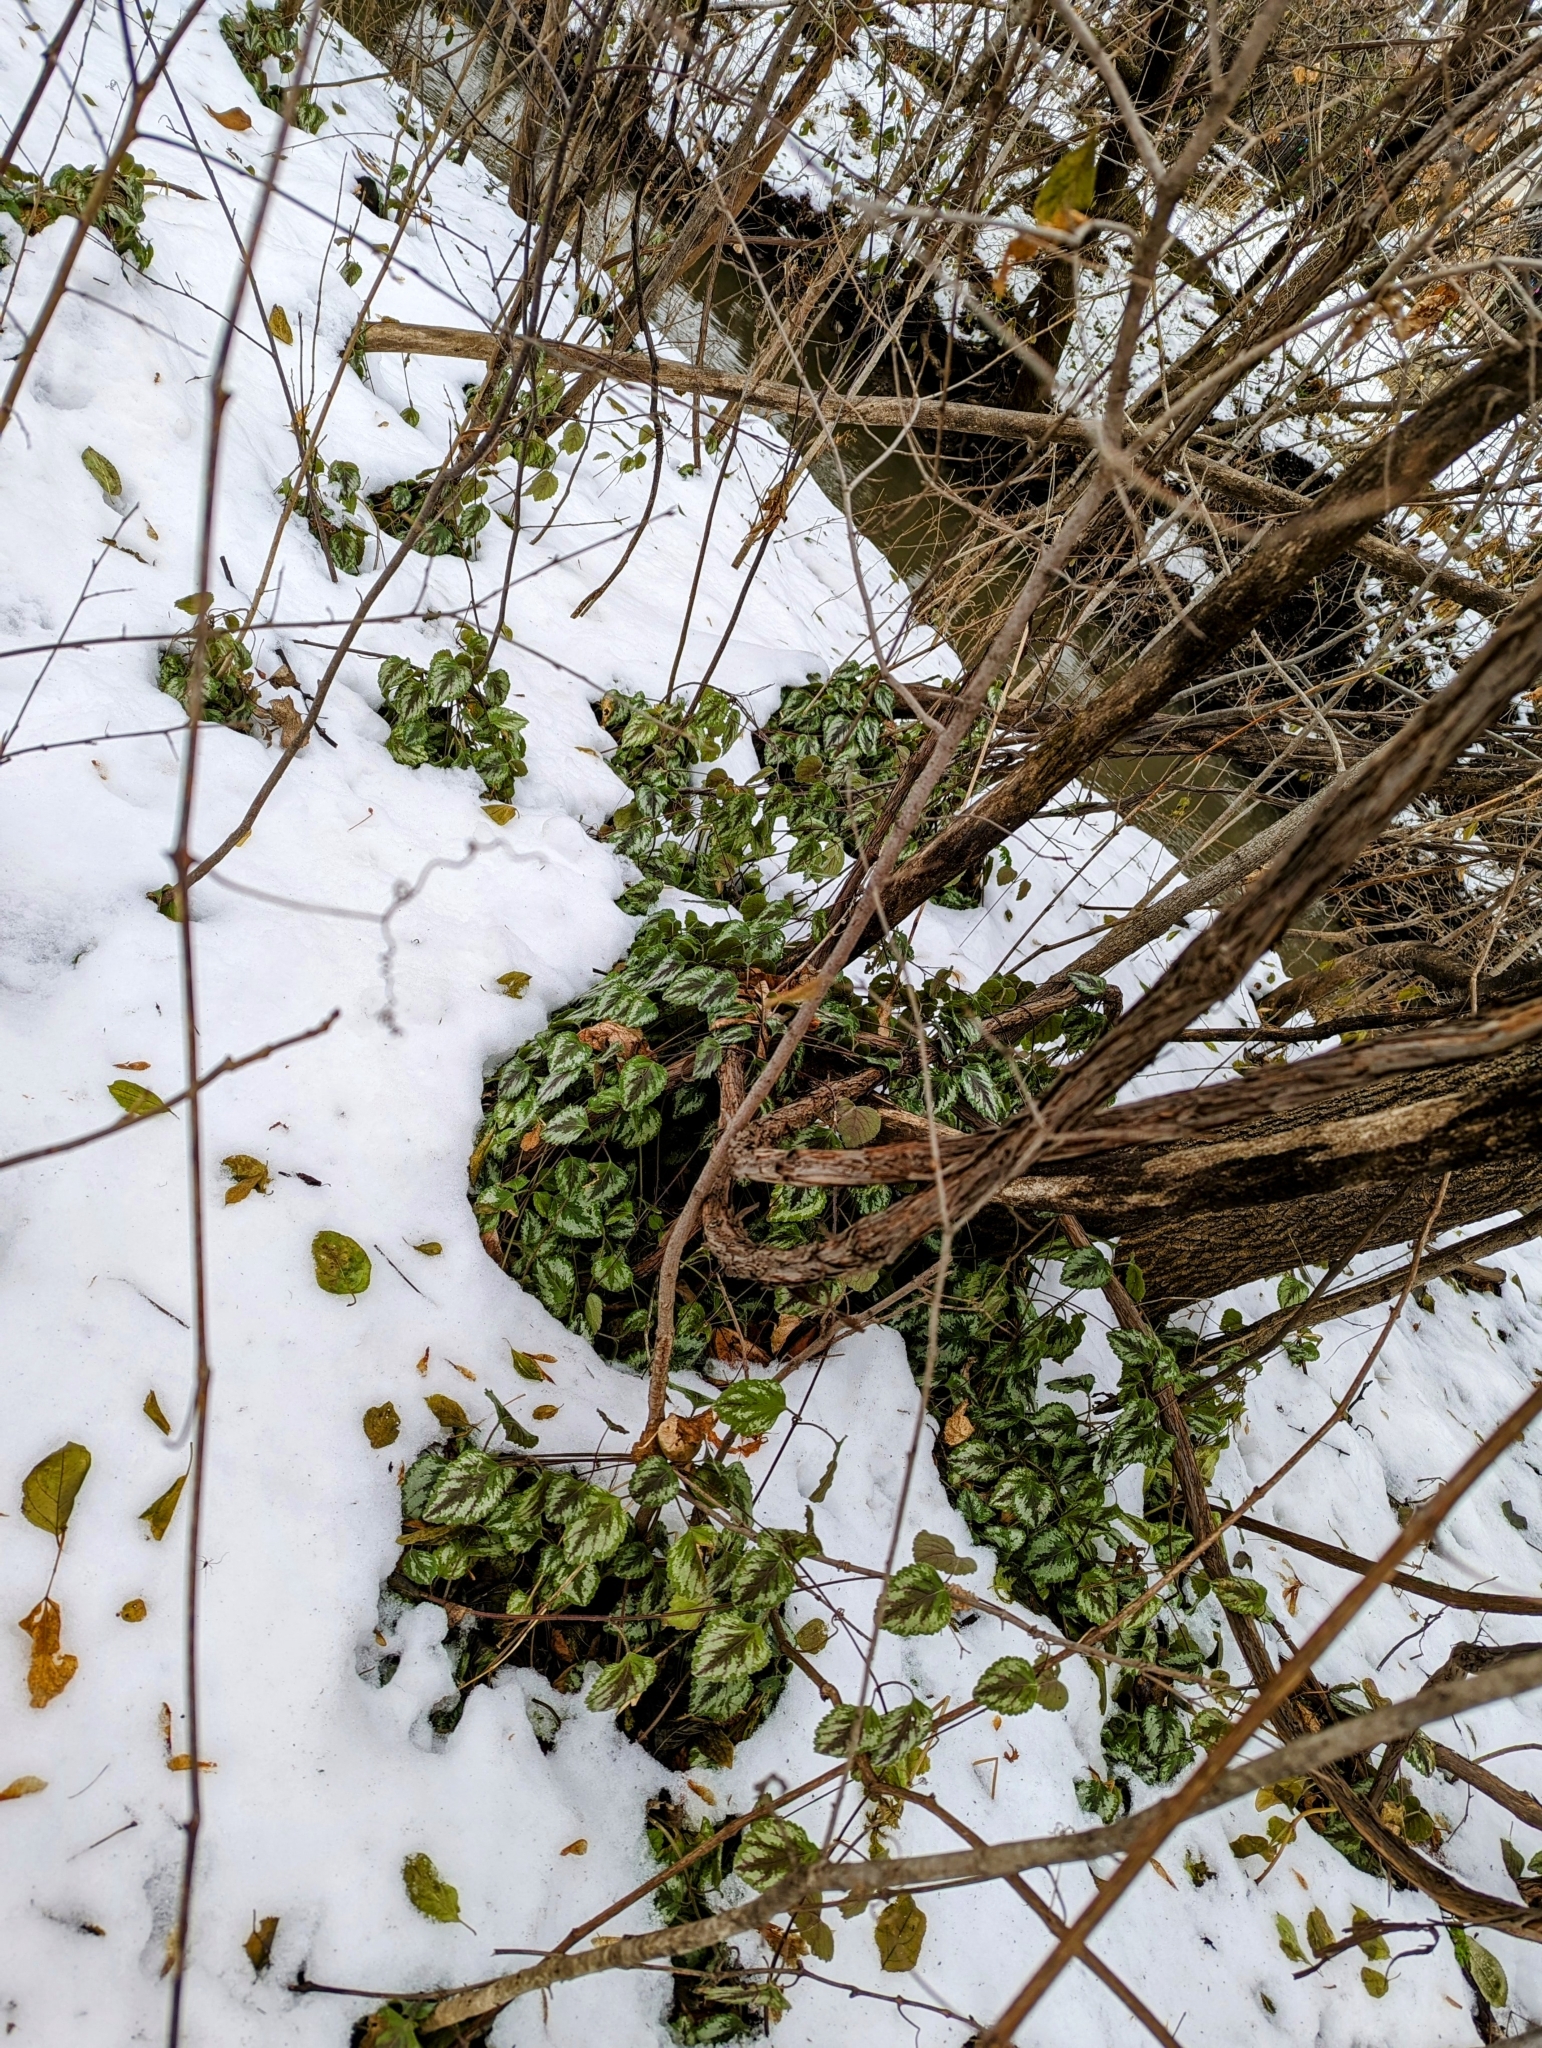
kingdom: Plantae
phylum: Tracheophyta
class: Magnoliopsida
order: Lamiales
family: Lamiaceae
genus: Lamium
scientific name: Lamium galeobdolon
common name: Yellow archangel
